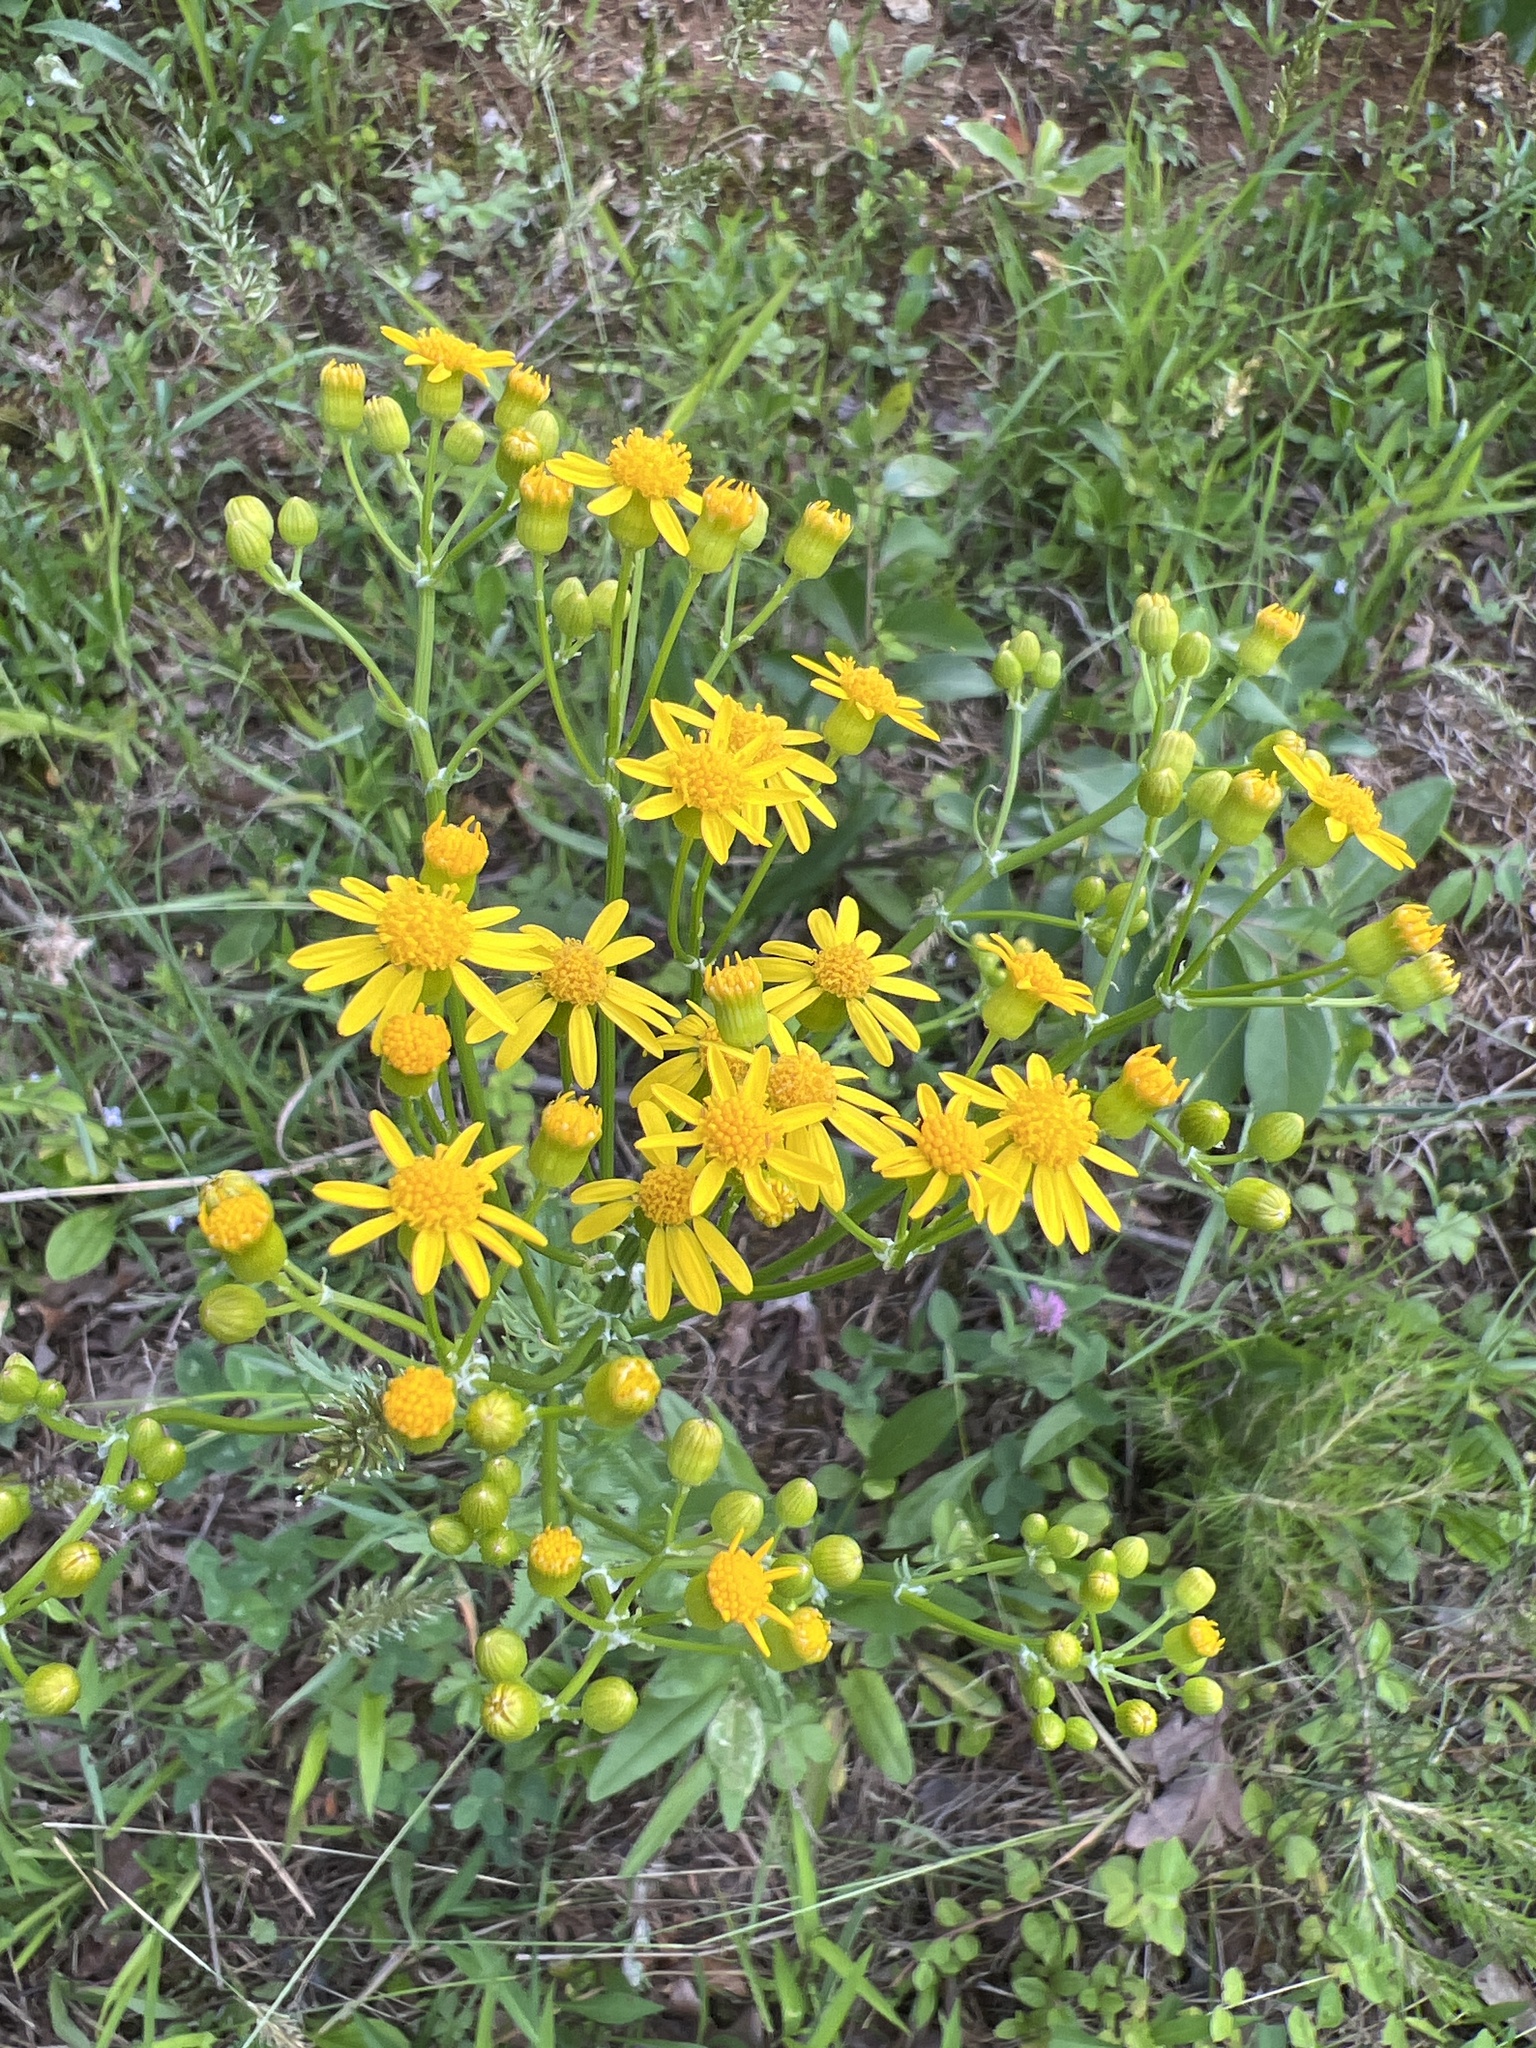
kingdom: Plantae
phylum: Tracheophyta
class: Magnoliopsida
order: Asterales
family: Asteraceae
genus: Packera
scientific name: Packera anonyma
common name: Small ragwort
